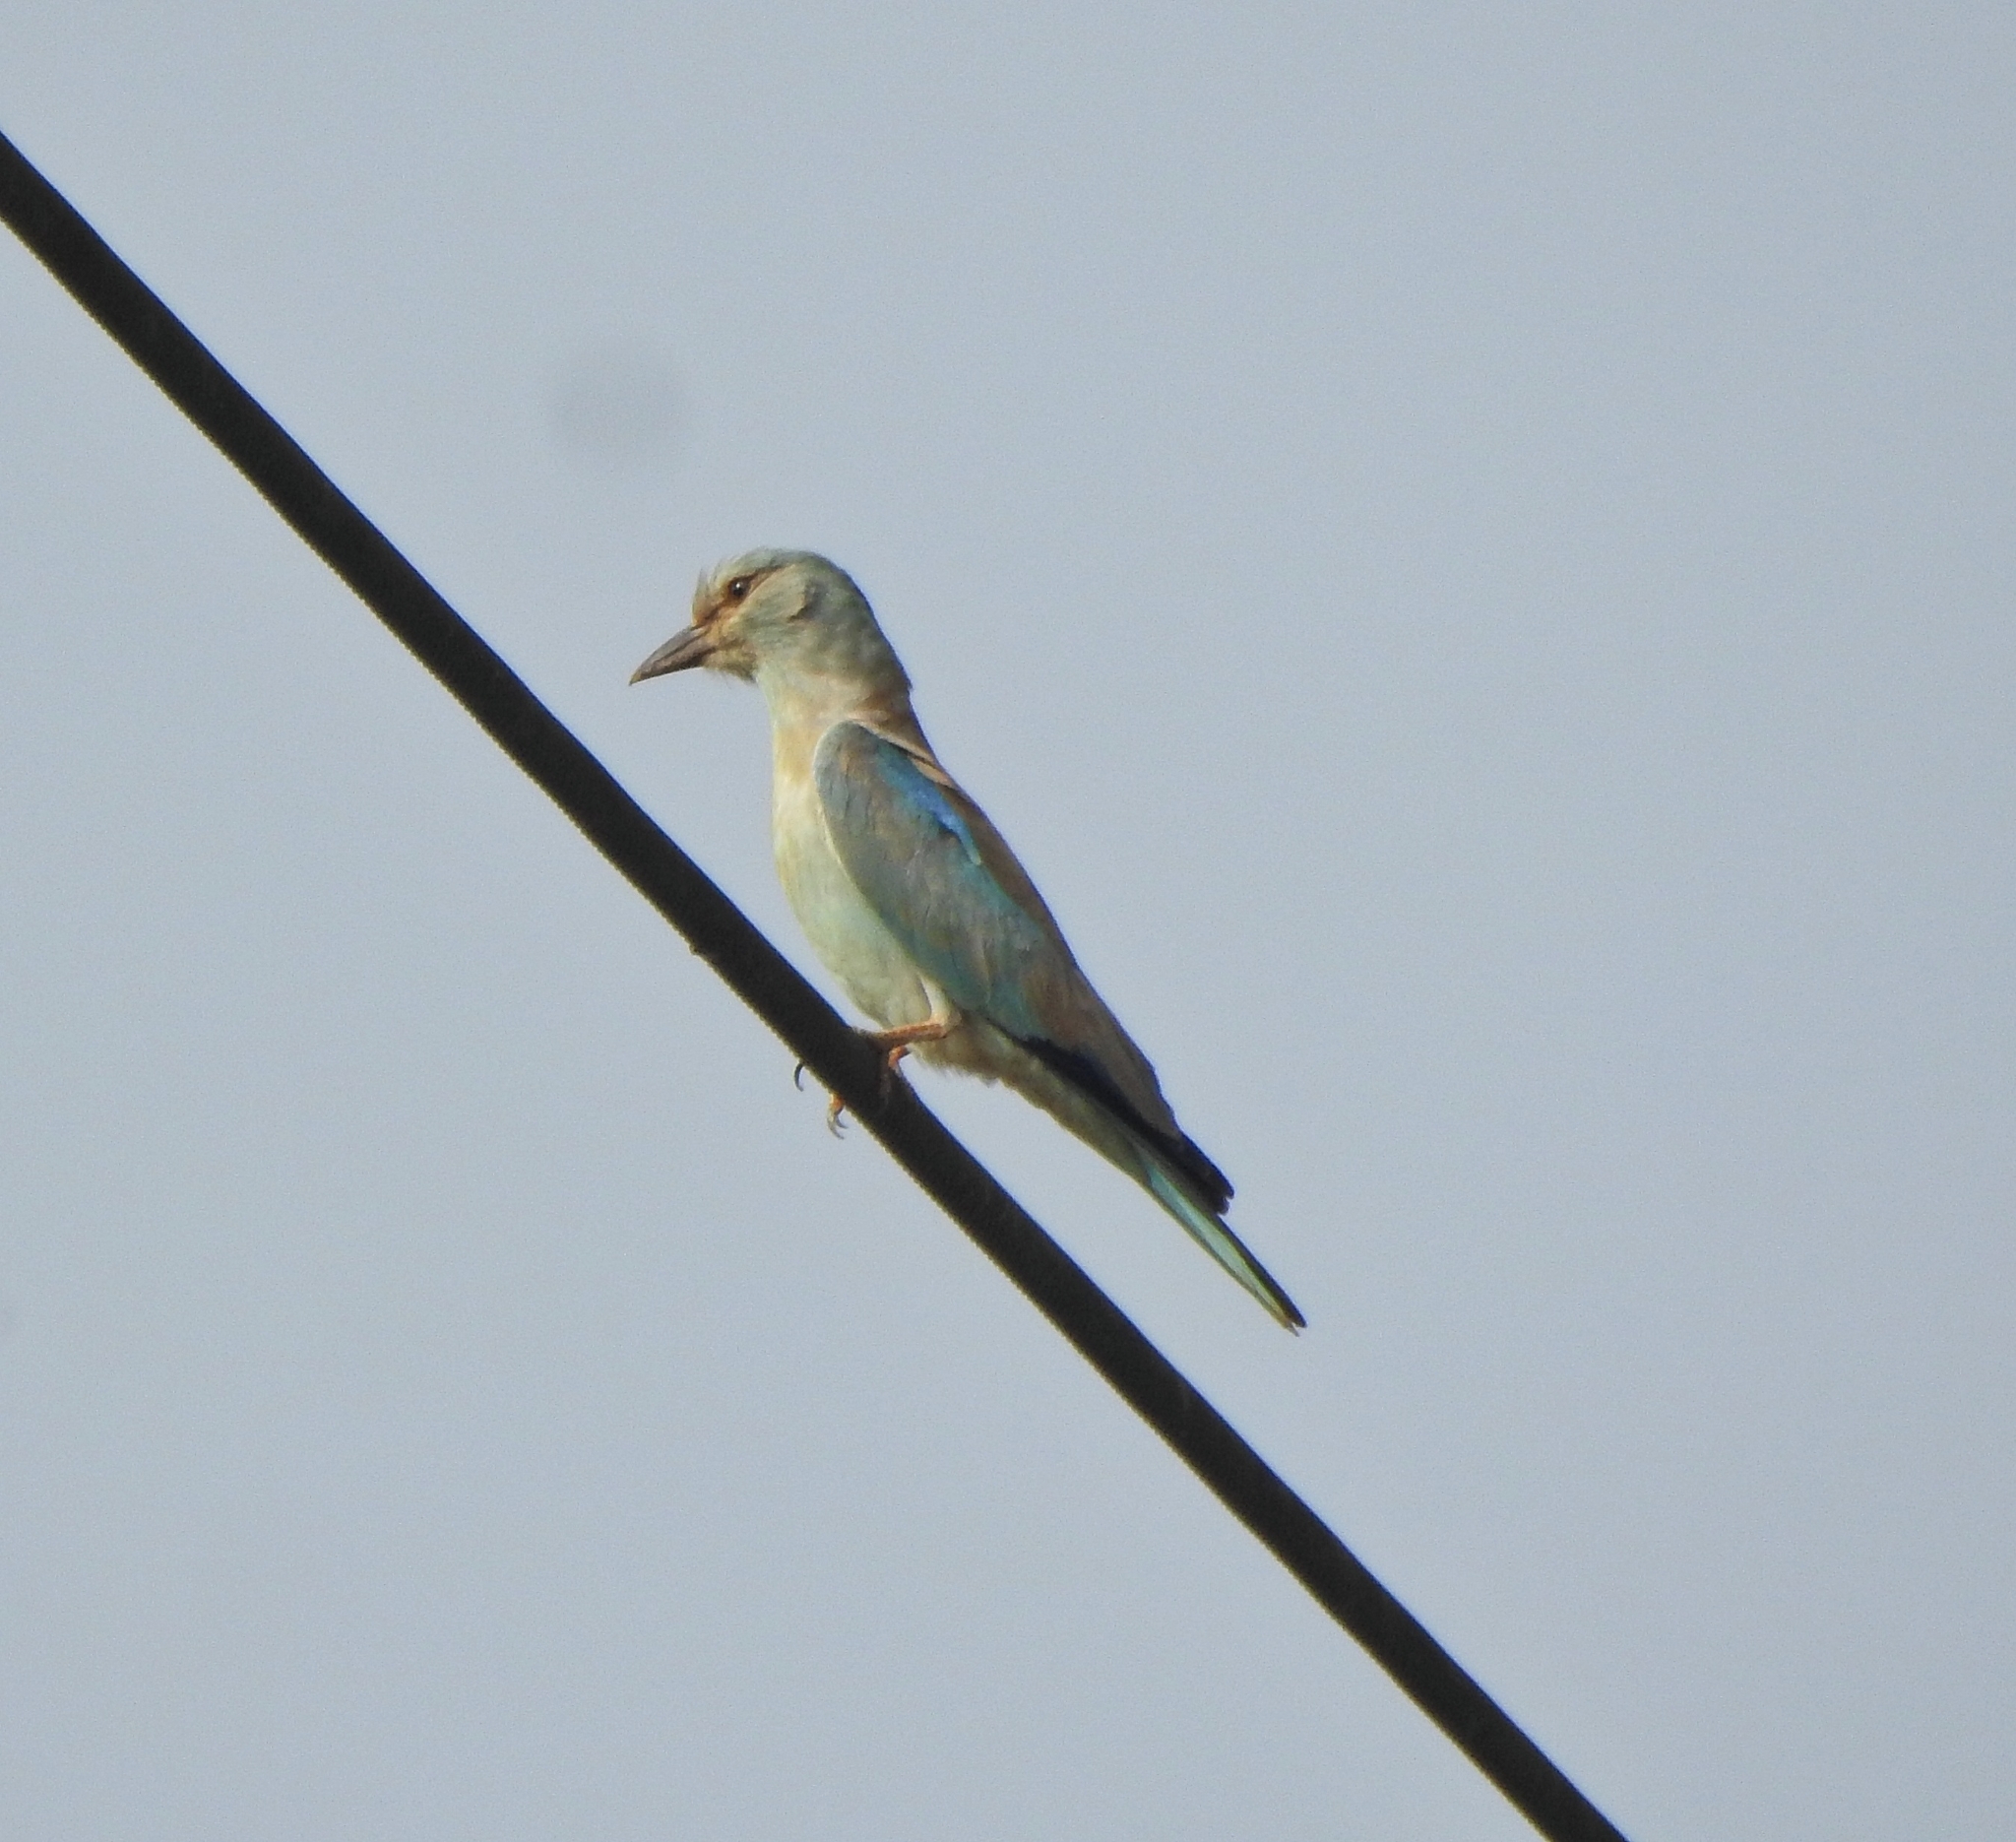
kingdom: Animalia
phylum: Chordata
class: Aves
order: Coraciiformes
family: Coraciidae
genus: Coracias
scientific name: Coracias garrulus
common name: European roller
